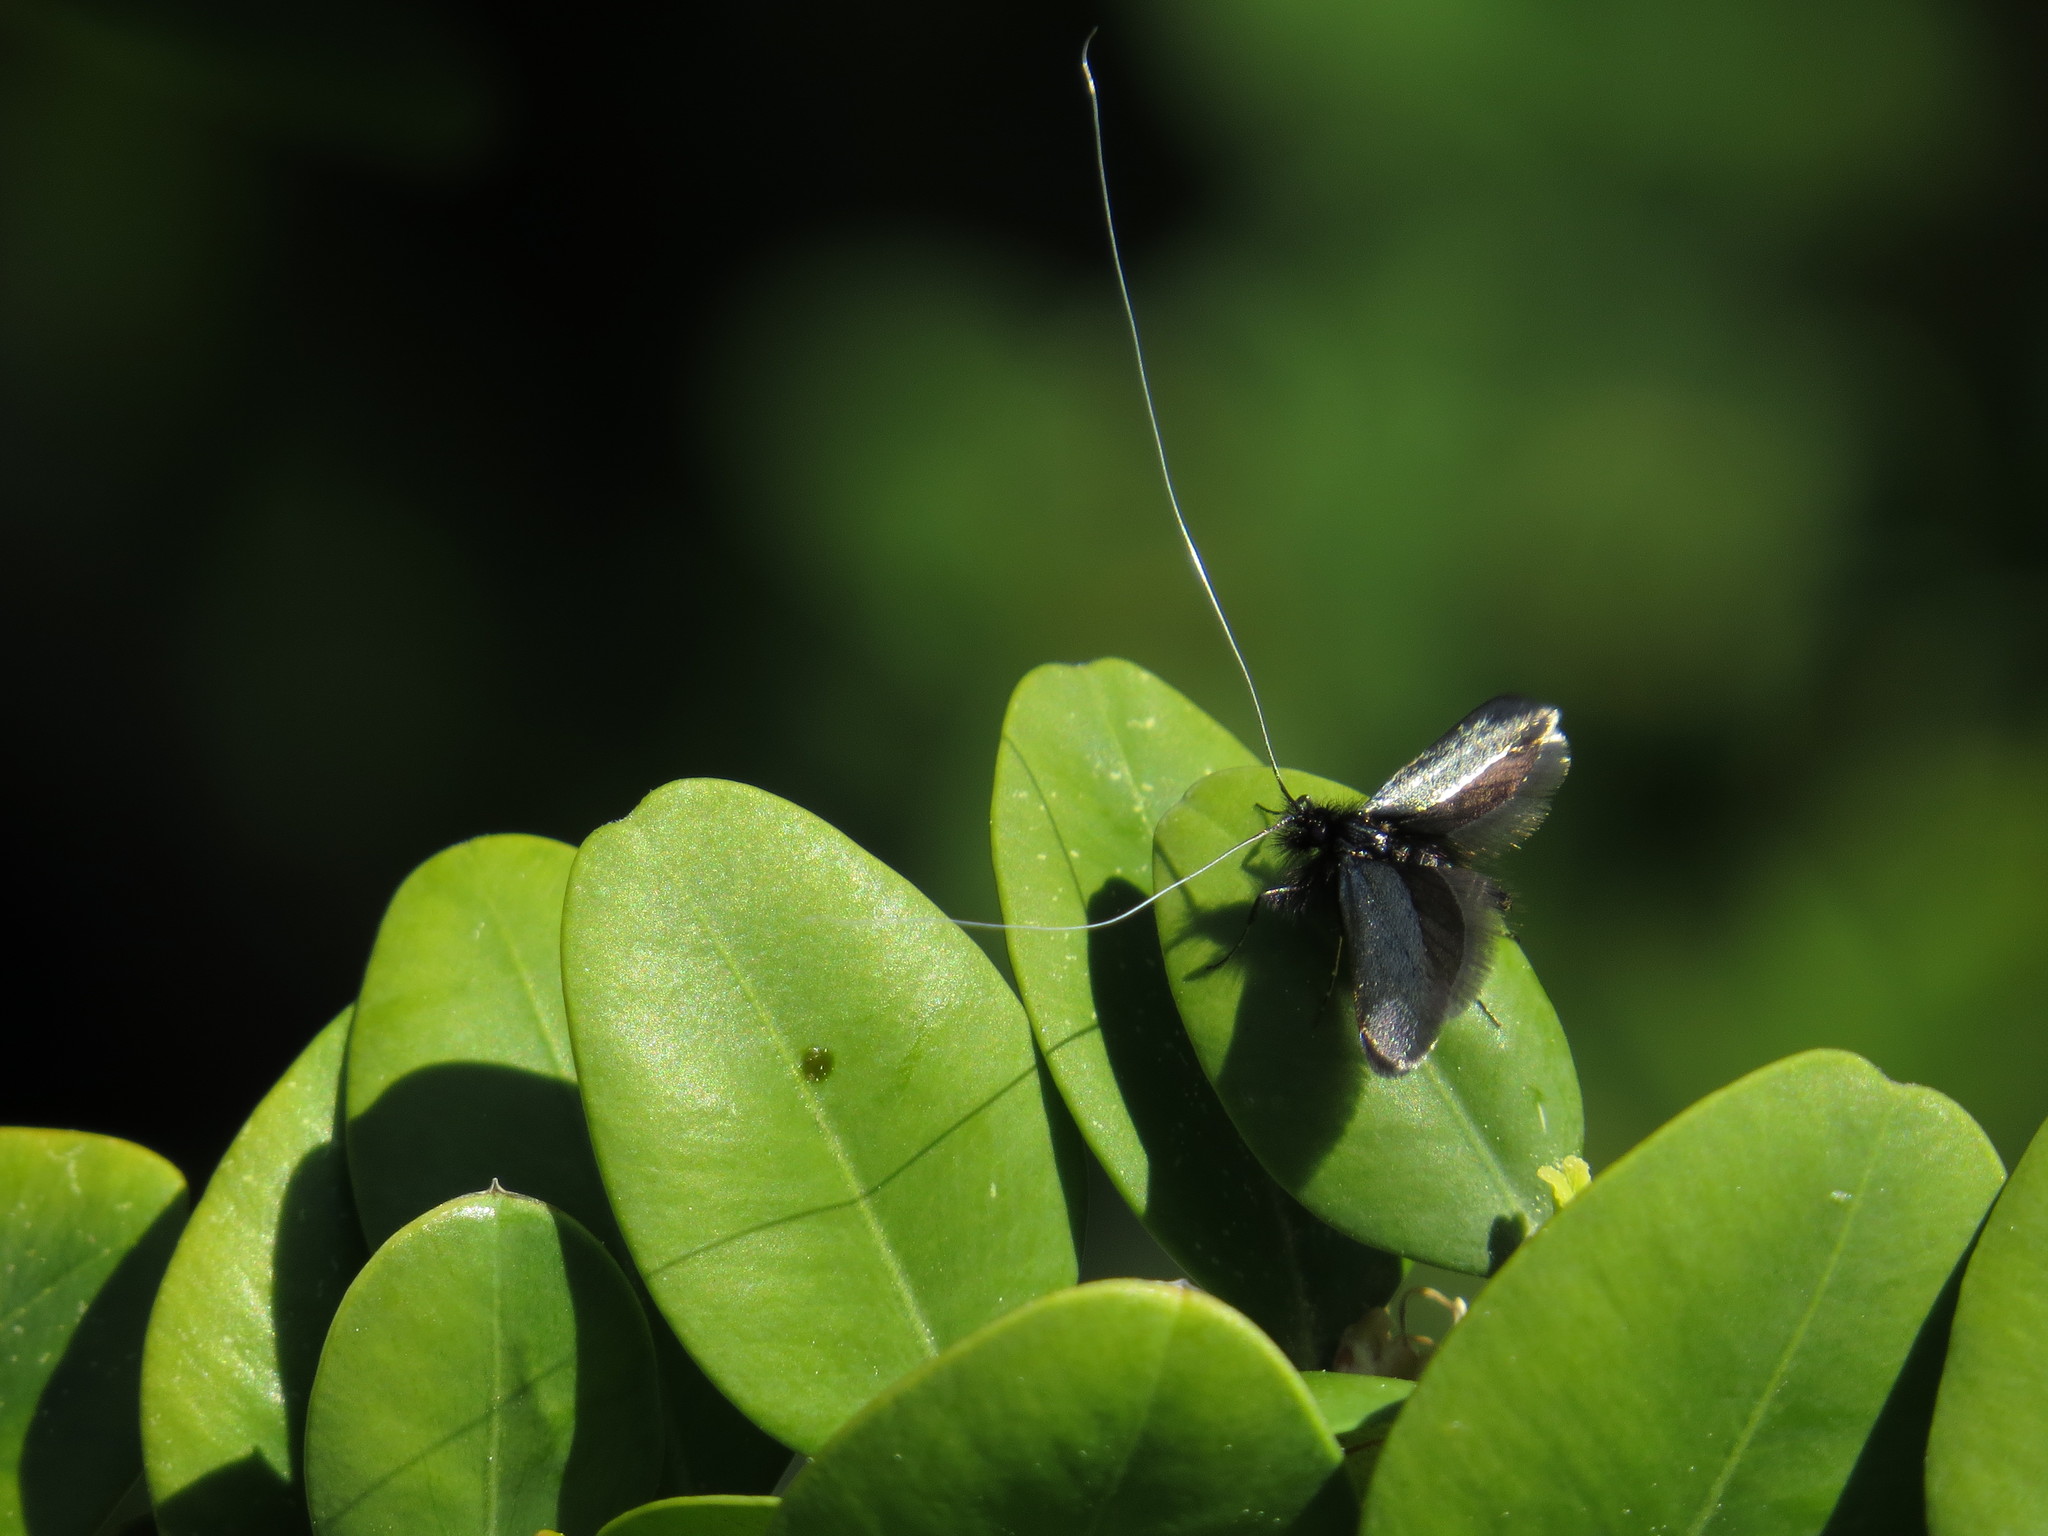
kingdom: Animalia
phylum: Arthropoda
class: Insecta
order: Lepidoptera
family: Adelidae
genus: Adela
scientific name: Adela viridella
